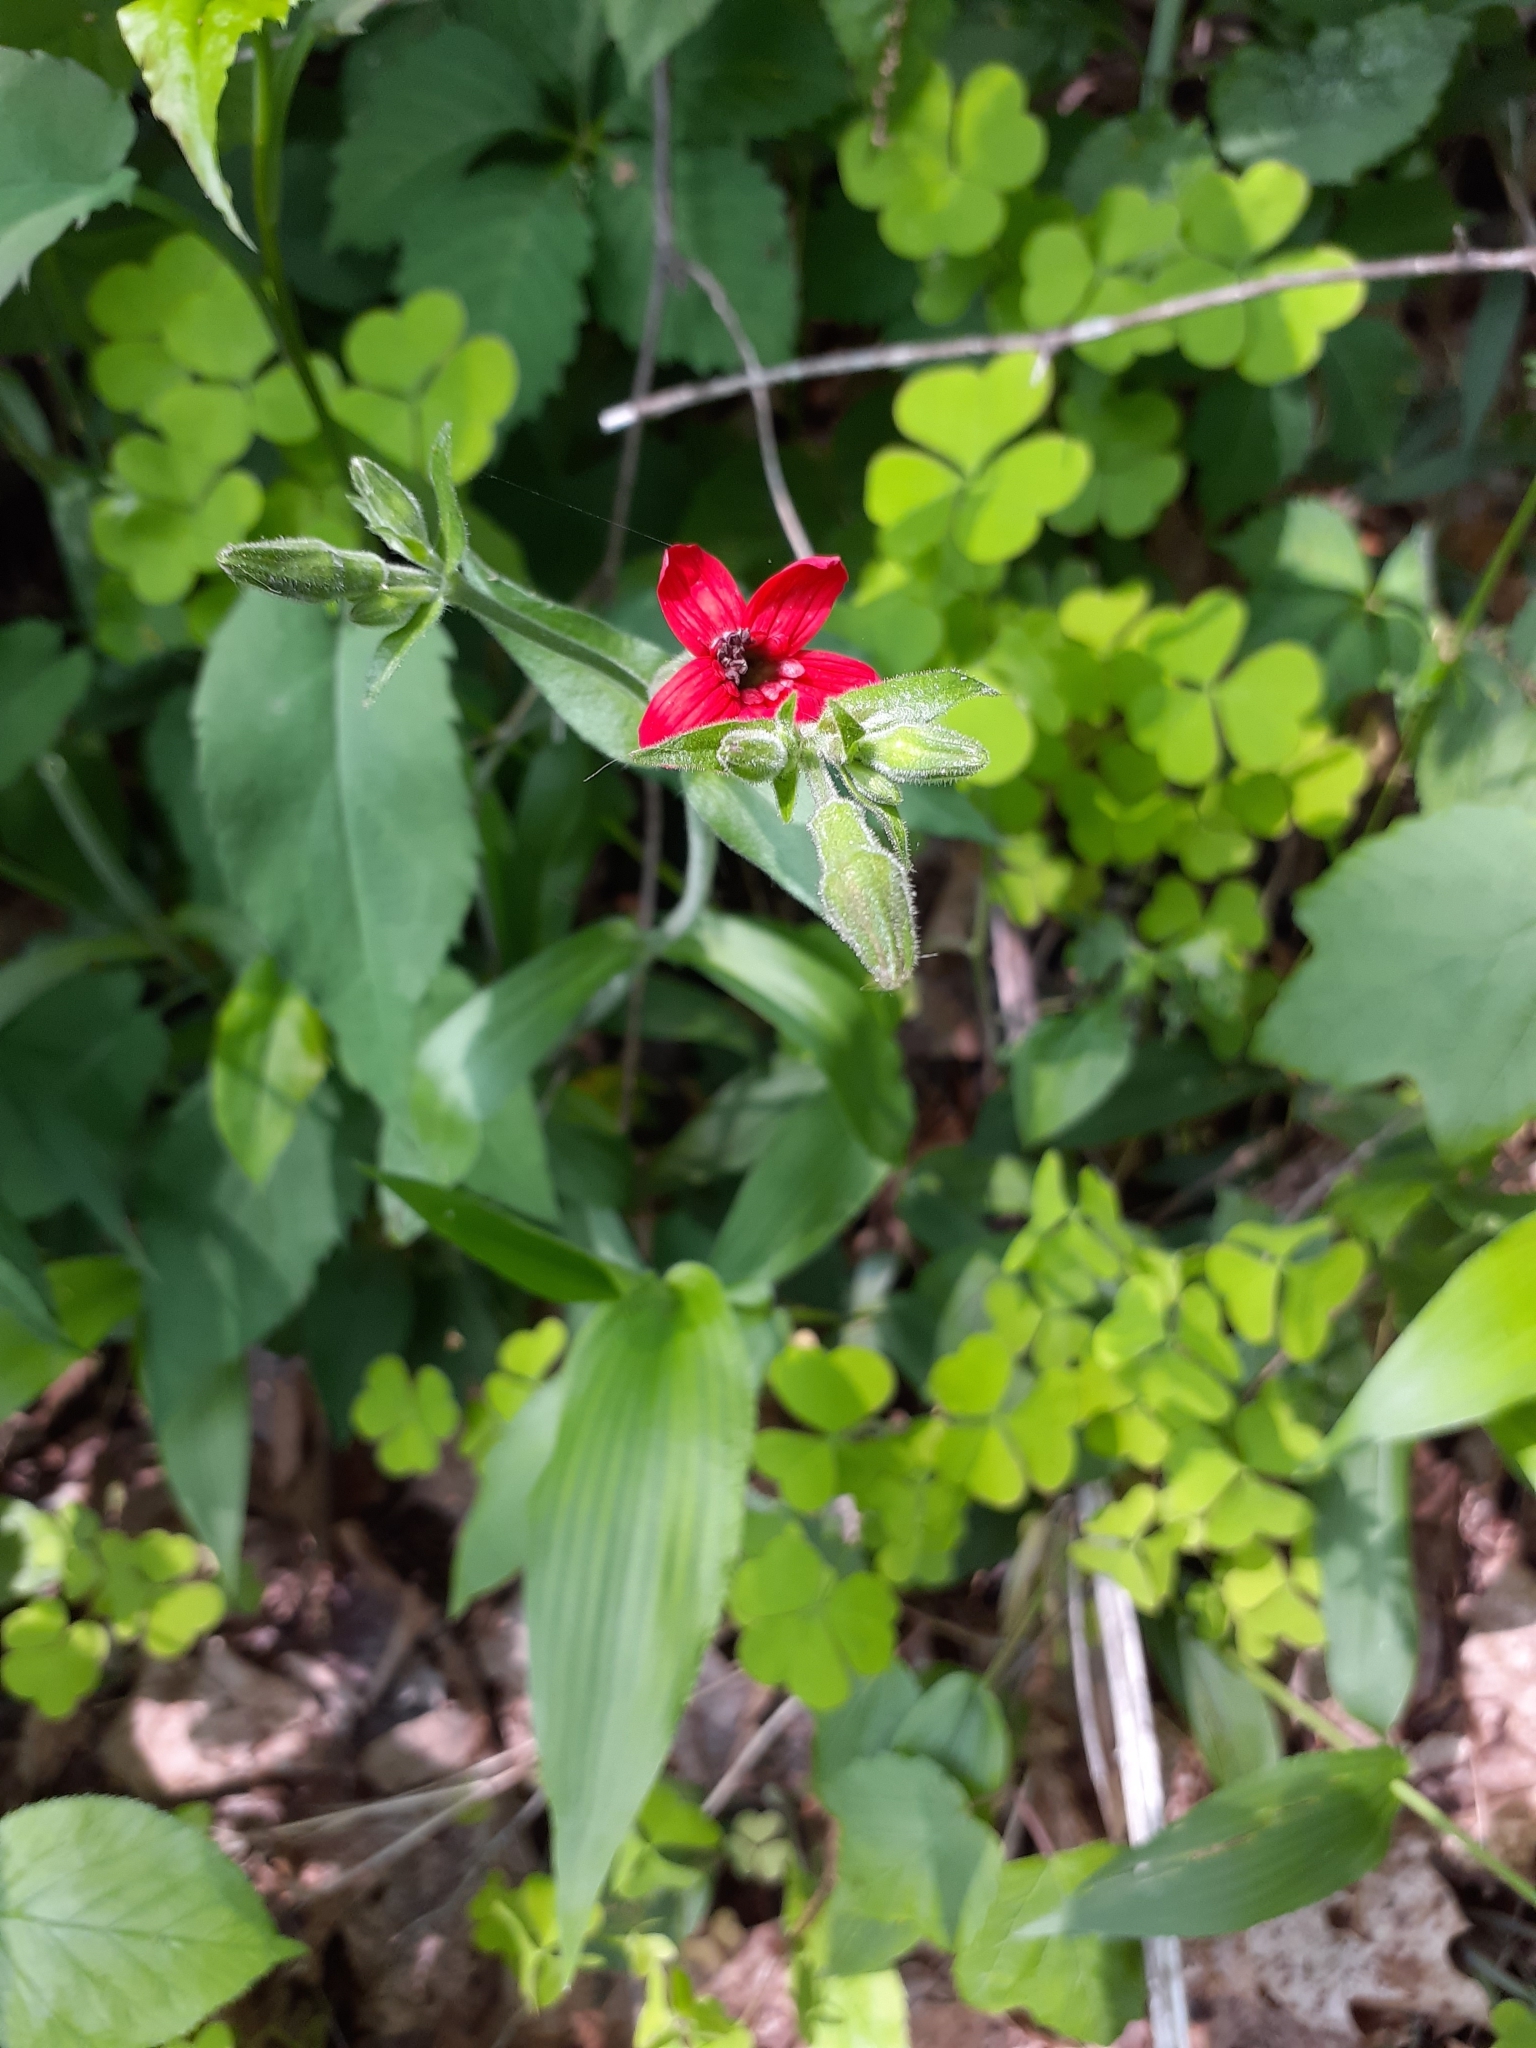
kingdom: Plantae
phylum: Tracheophyta
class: Magnoliopsida
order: Caryophyllales
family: Caryophyllaceae
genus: Silene
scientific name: Silene virginica
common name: Fire-pink
